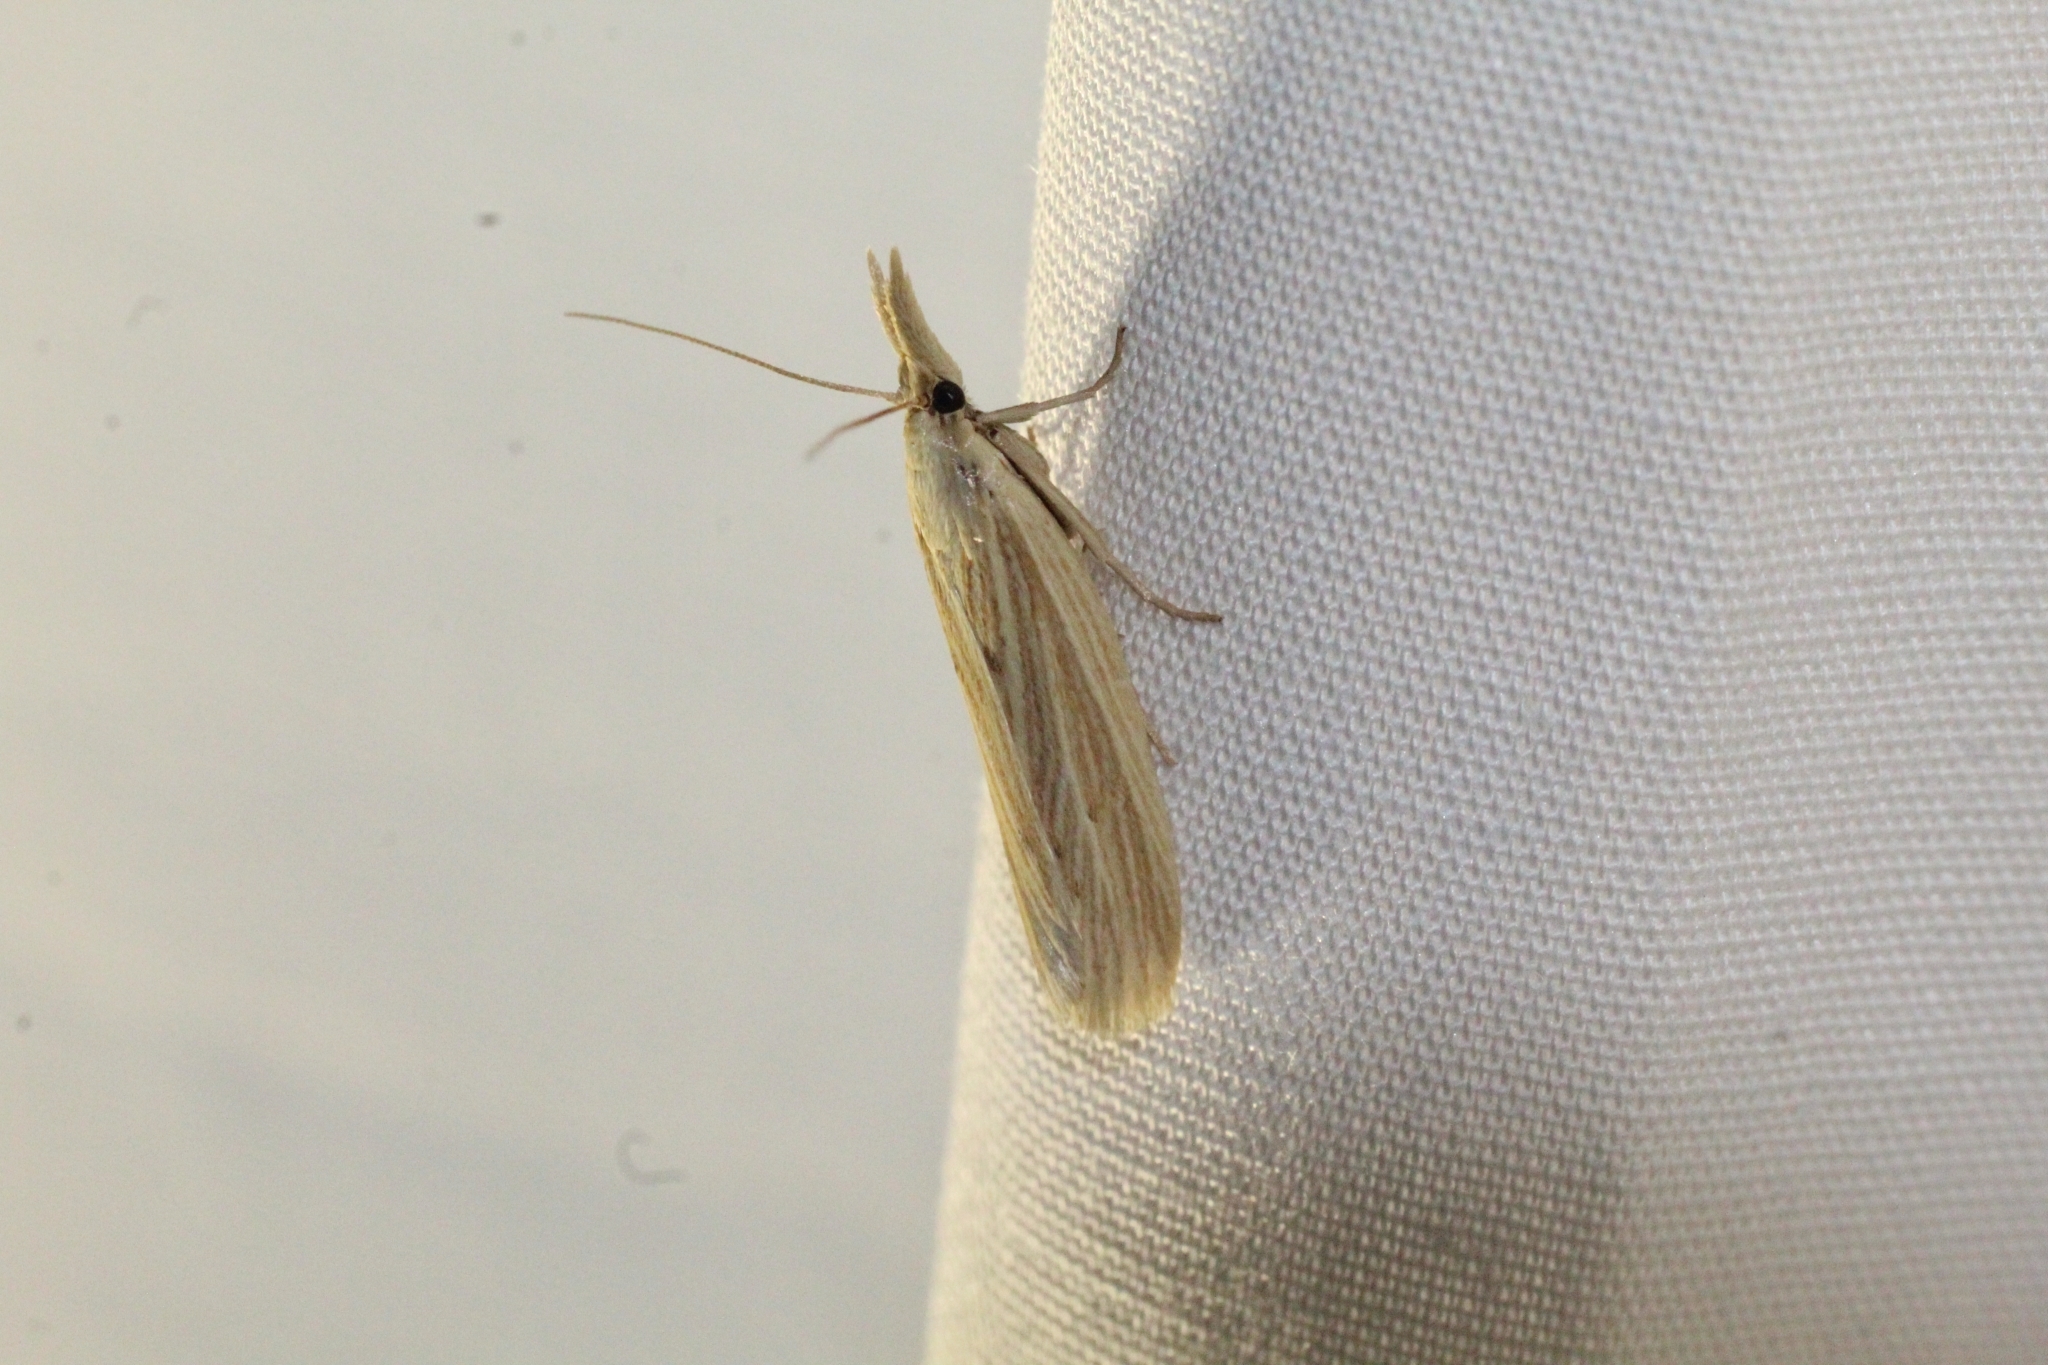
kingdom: Animalia
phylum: Arthropoda
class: Insecta
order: Lepidoptera
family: Pyralidae
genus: Ematheudes
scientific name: Ematheudes punctellus
